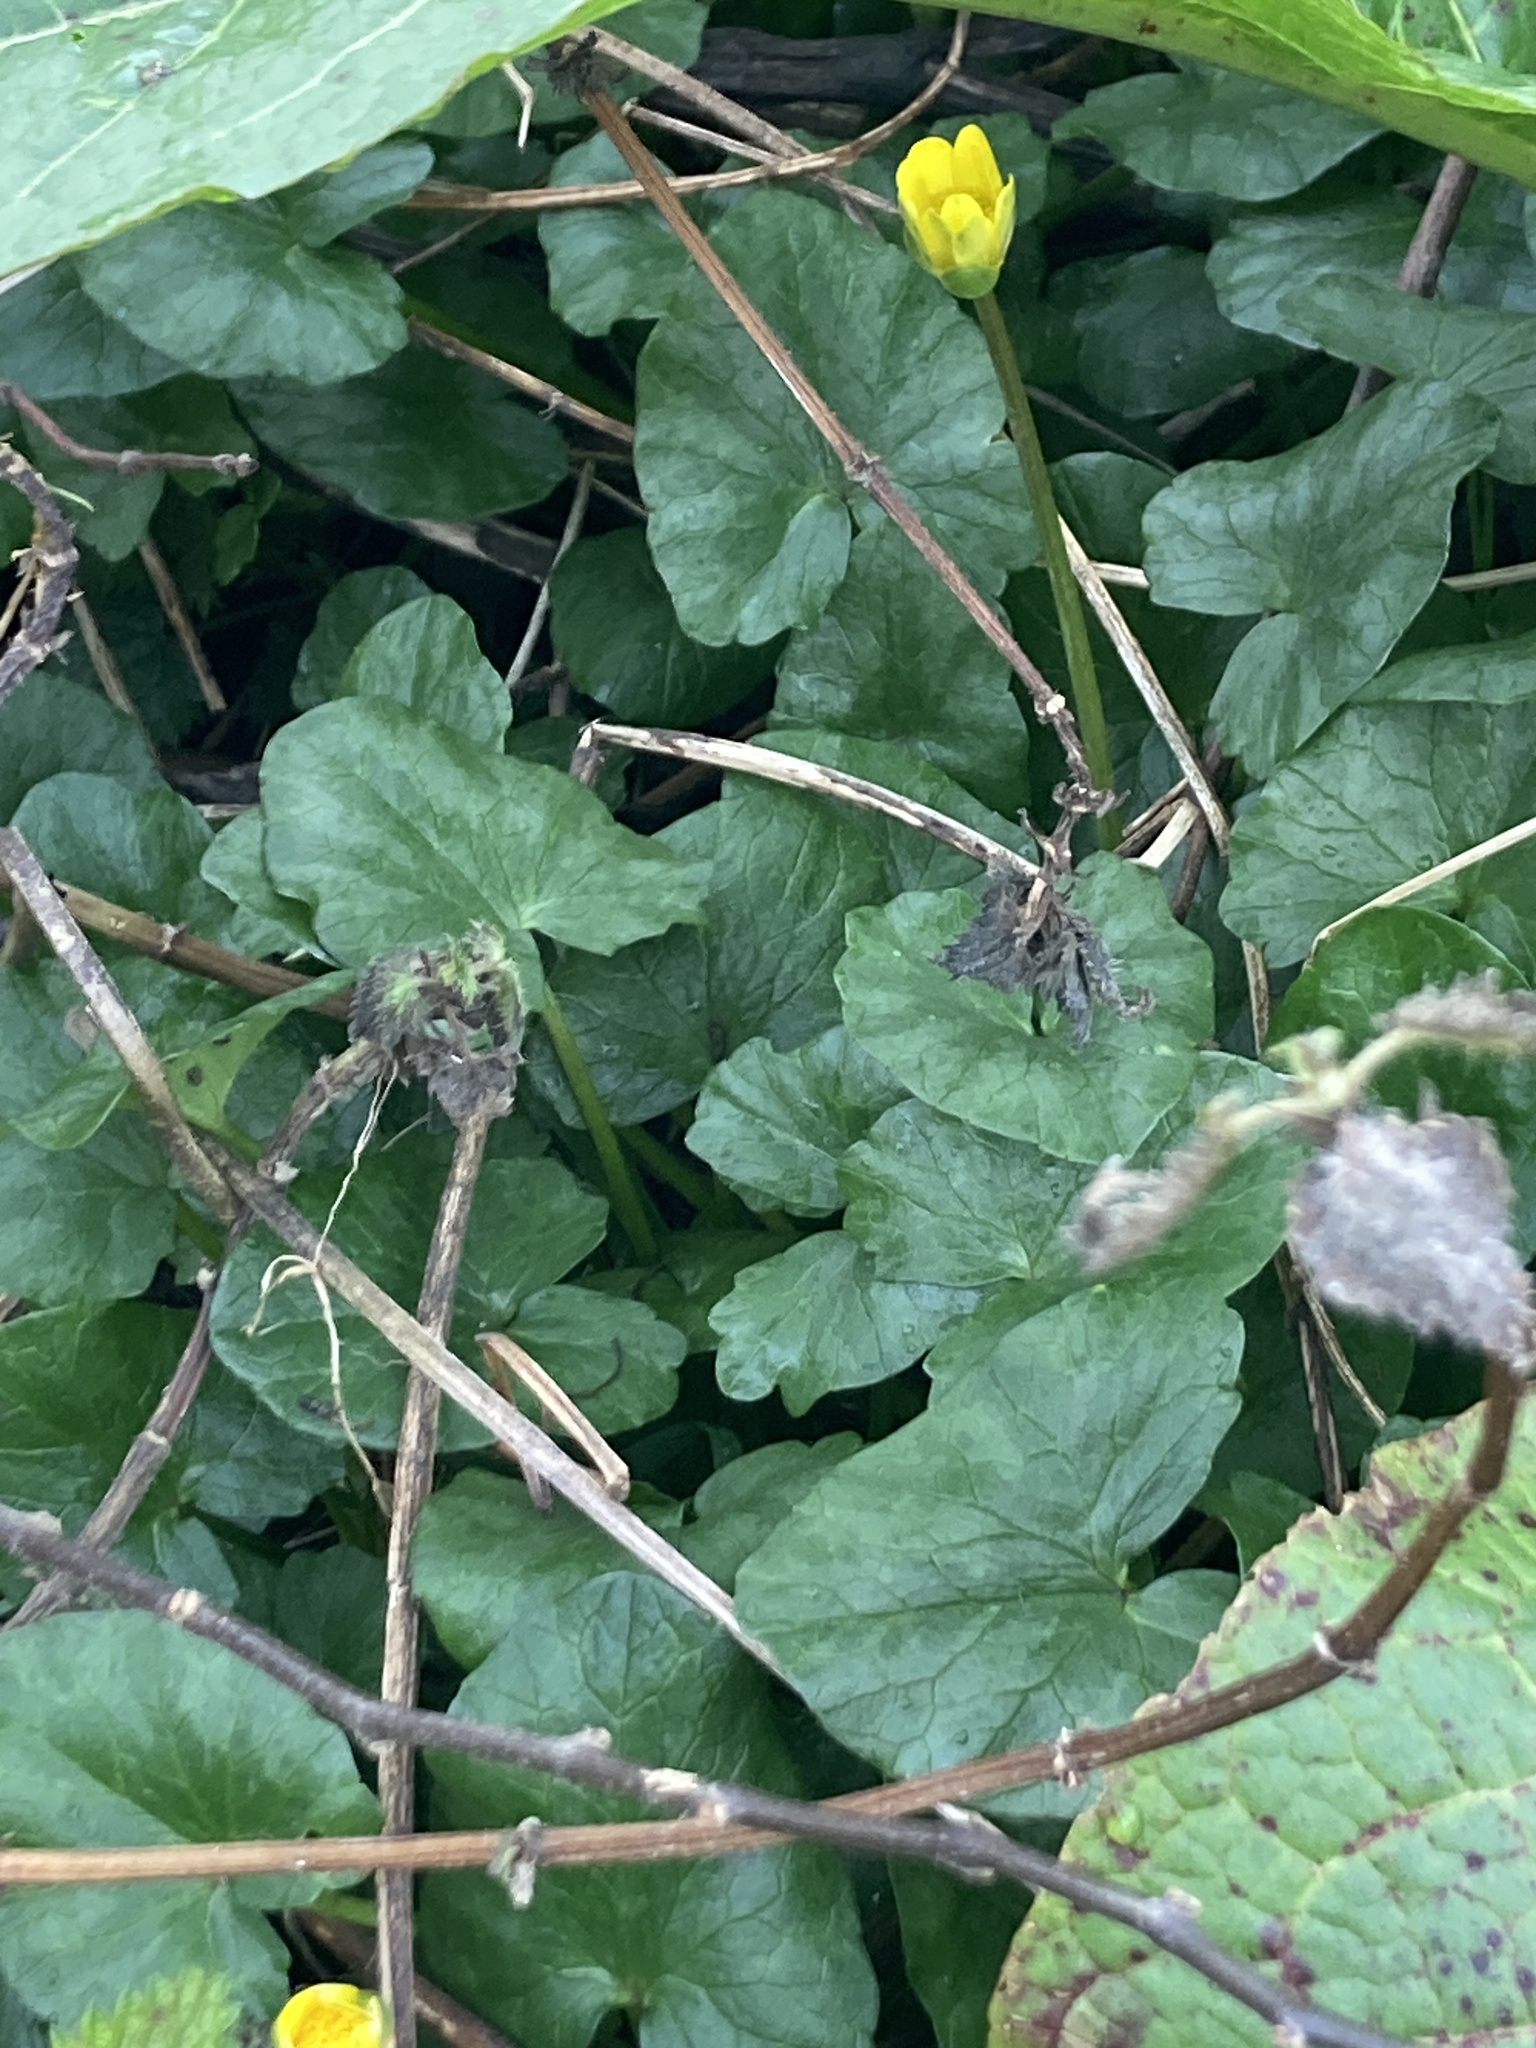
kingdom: Plantae
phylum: Tracheophyta
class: Magnoliopsida
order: Ranunculales
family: Ranunculaceae
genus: Ficaria
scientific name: Ficaria verna
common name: Lesser celandine
